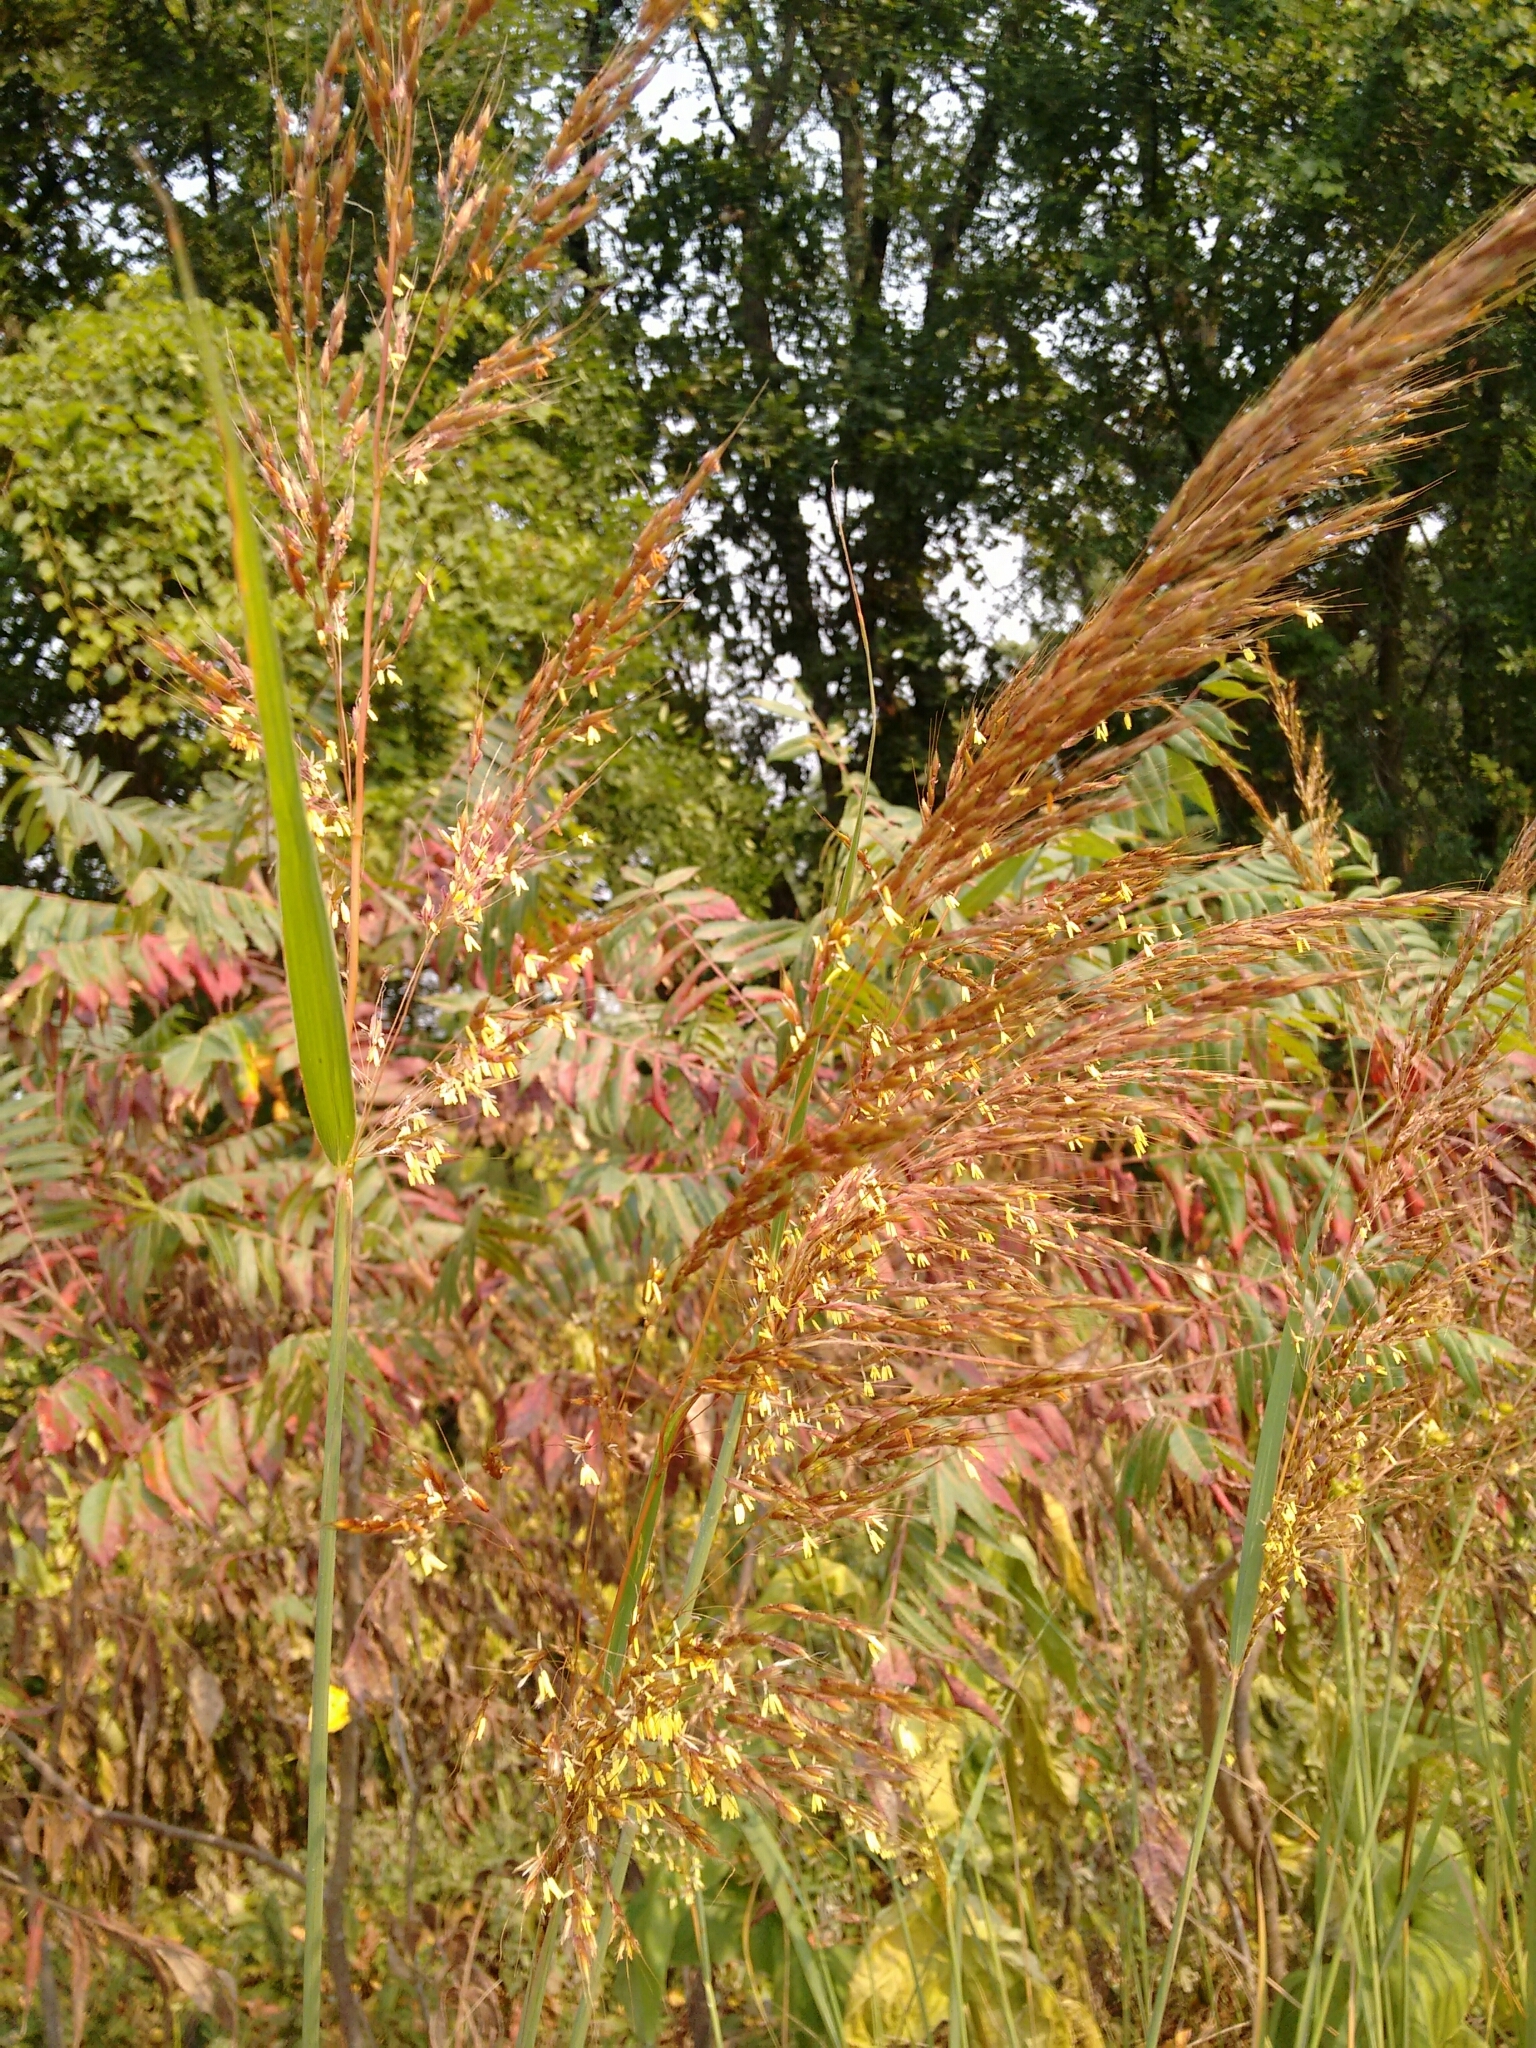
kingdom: Plantae
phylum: Tracheophyta
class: Liliopsida
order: Poales
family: Poaceae
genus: Sorghastrum
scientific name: Sorghastrum nutans
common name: Indian grass
